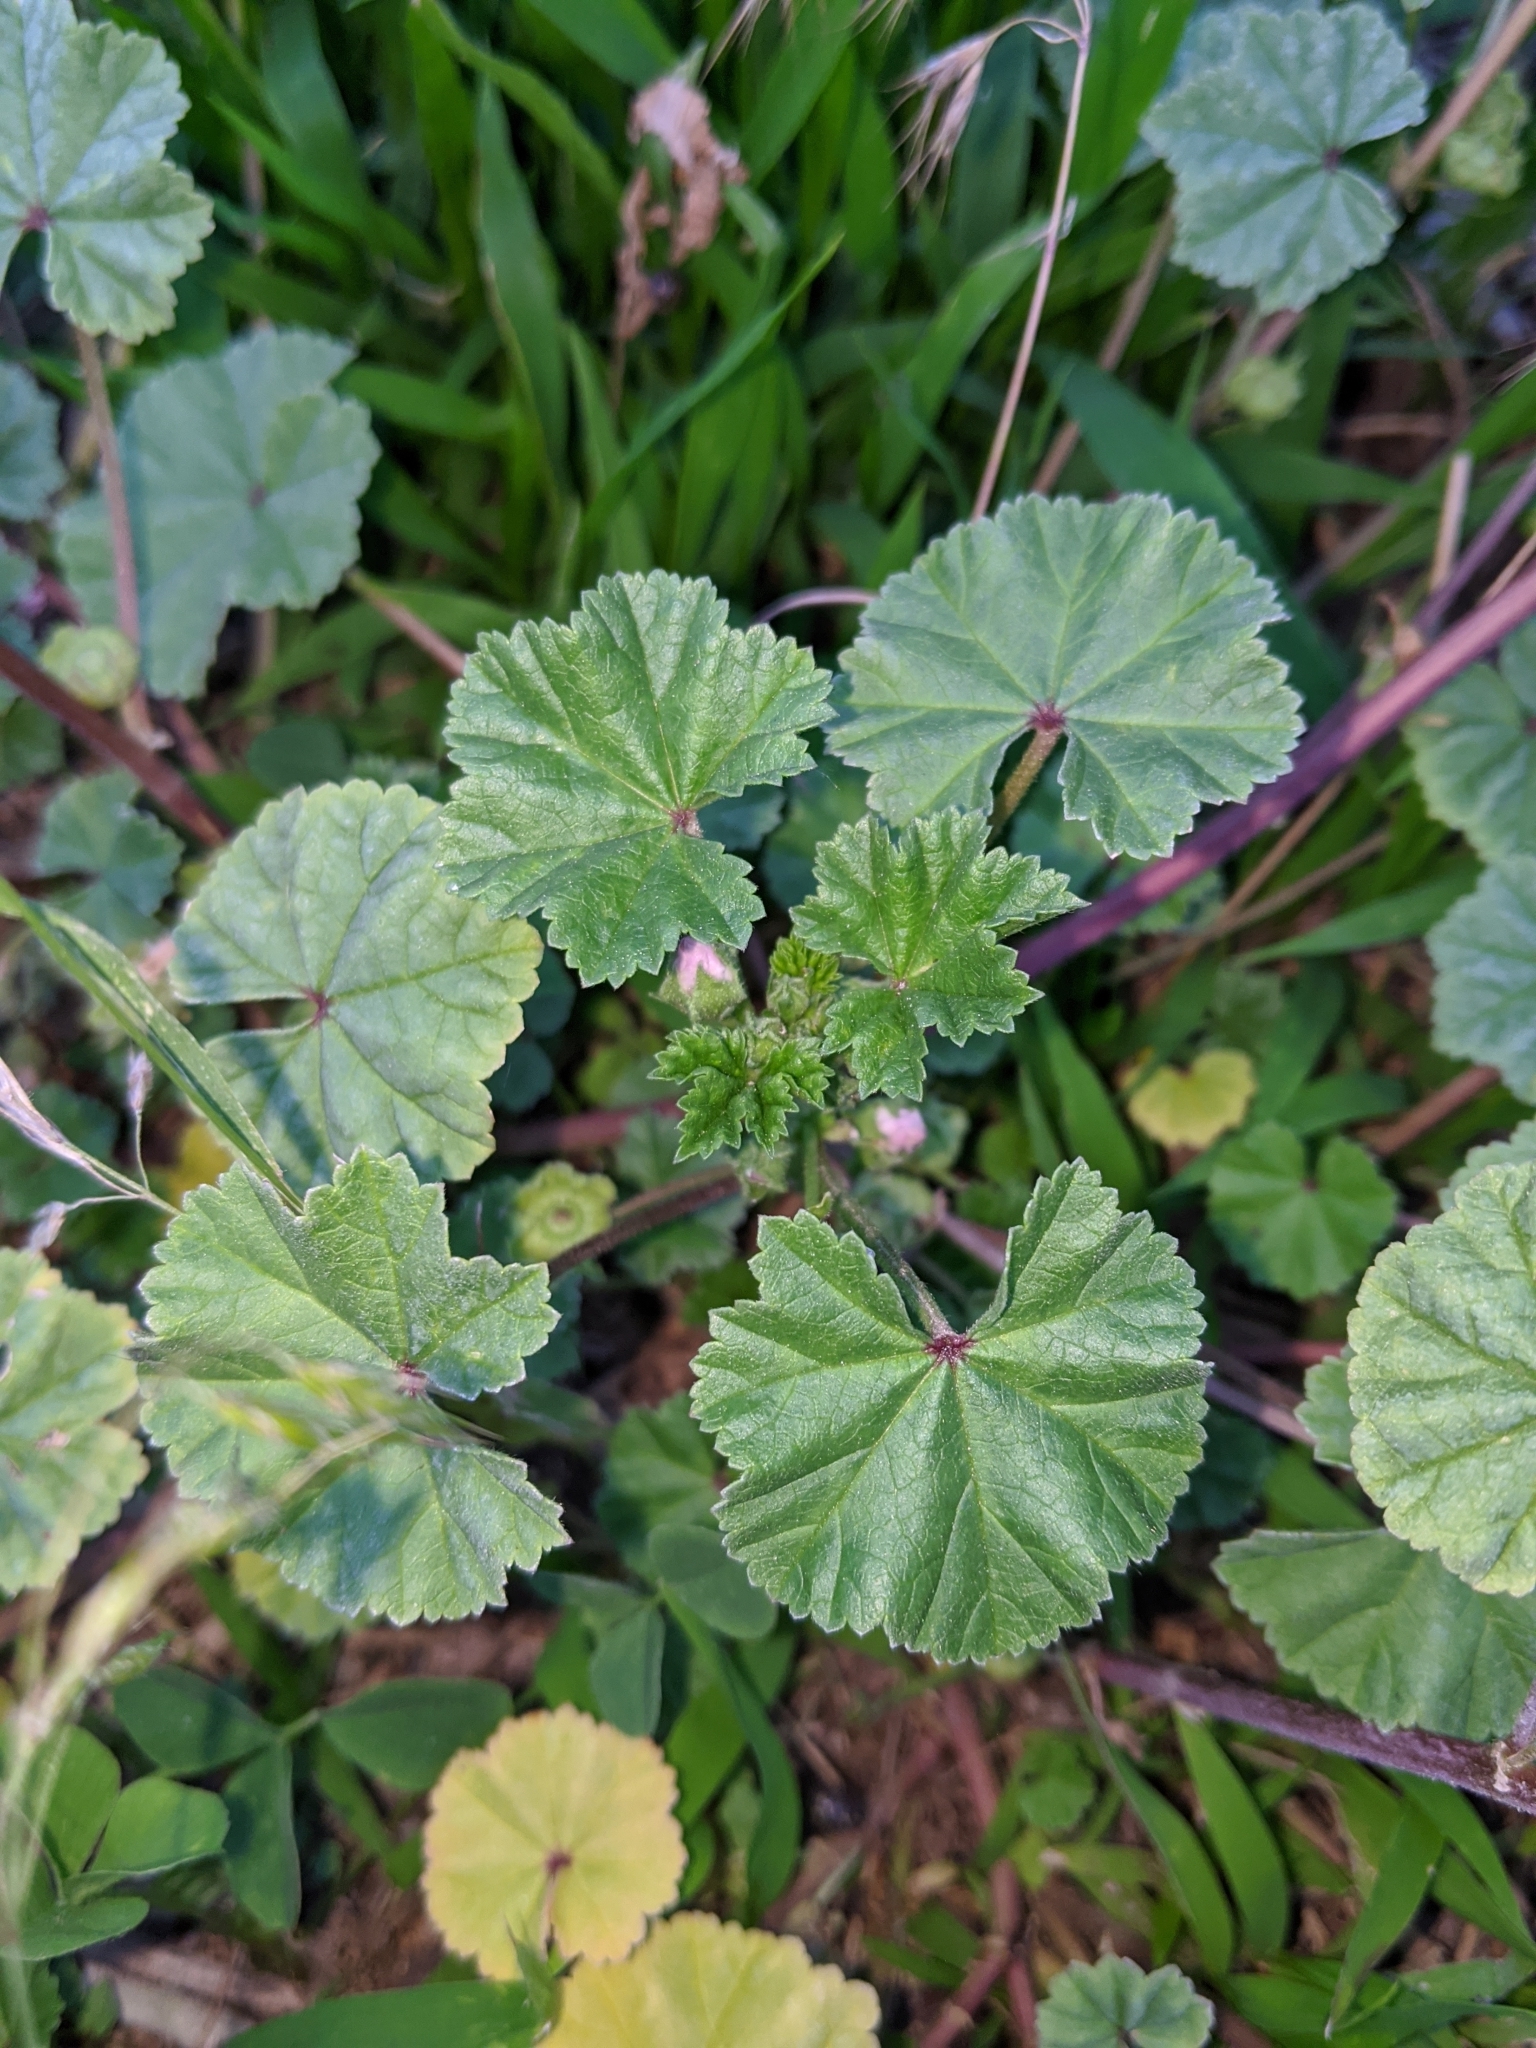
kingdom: Plantae
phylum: Tracheophyta
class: Magnoliopsida
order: Malvales
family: Malvaceae
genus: Malva
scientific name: Malva neglecta
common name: Common mallow
